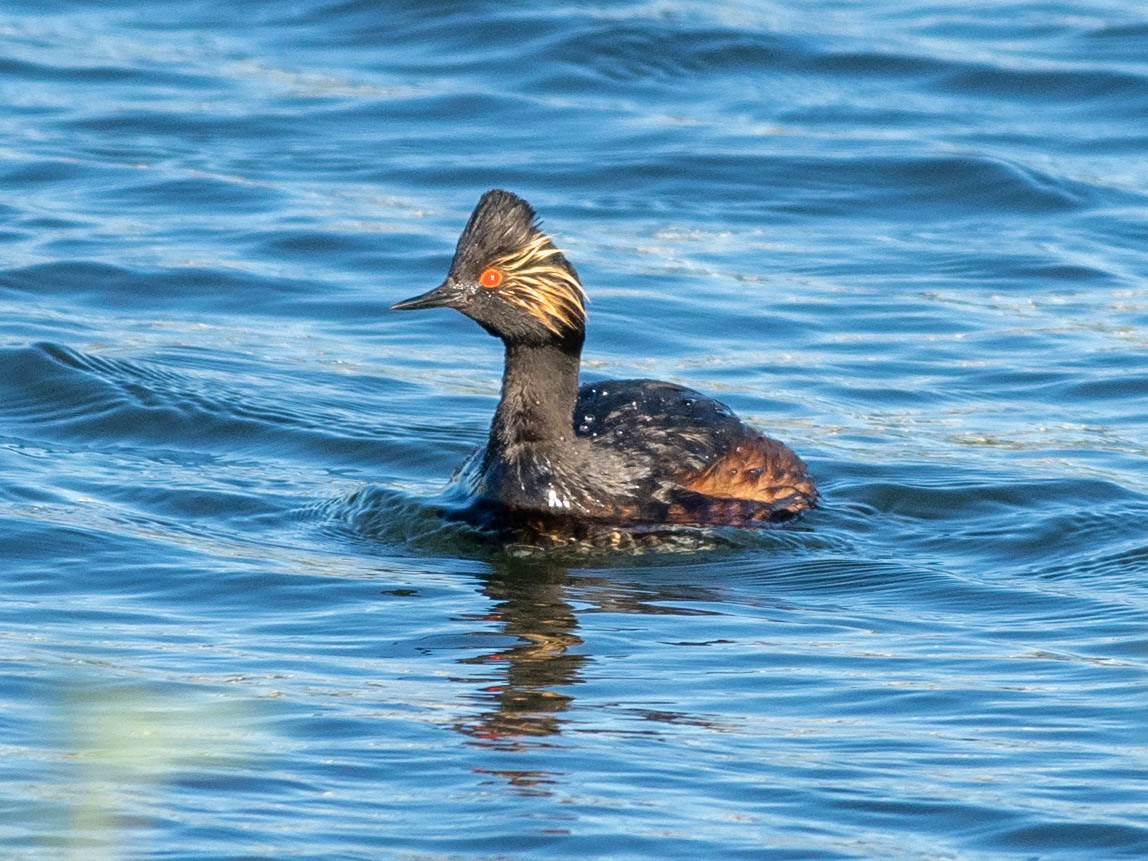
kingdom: Animalia
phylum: Chordata
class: Aves
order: Podicipediformes
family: Podicipedidae
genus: Podiceps
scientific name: Podiceps nigricollis
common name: Black-necked grebe
